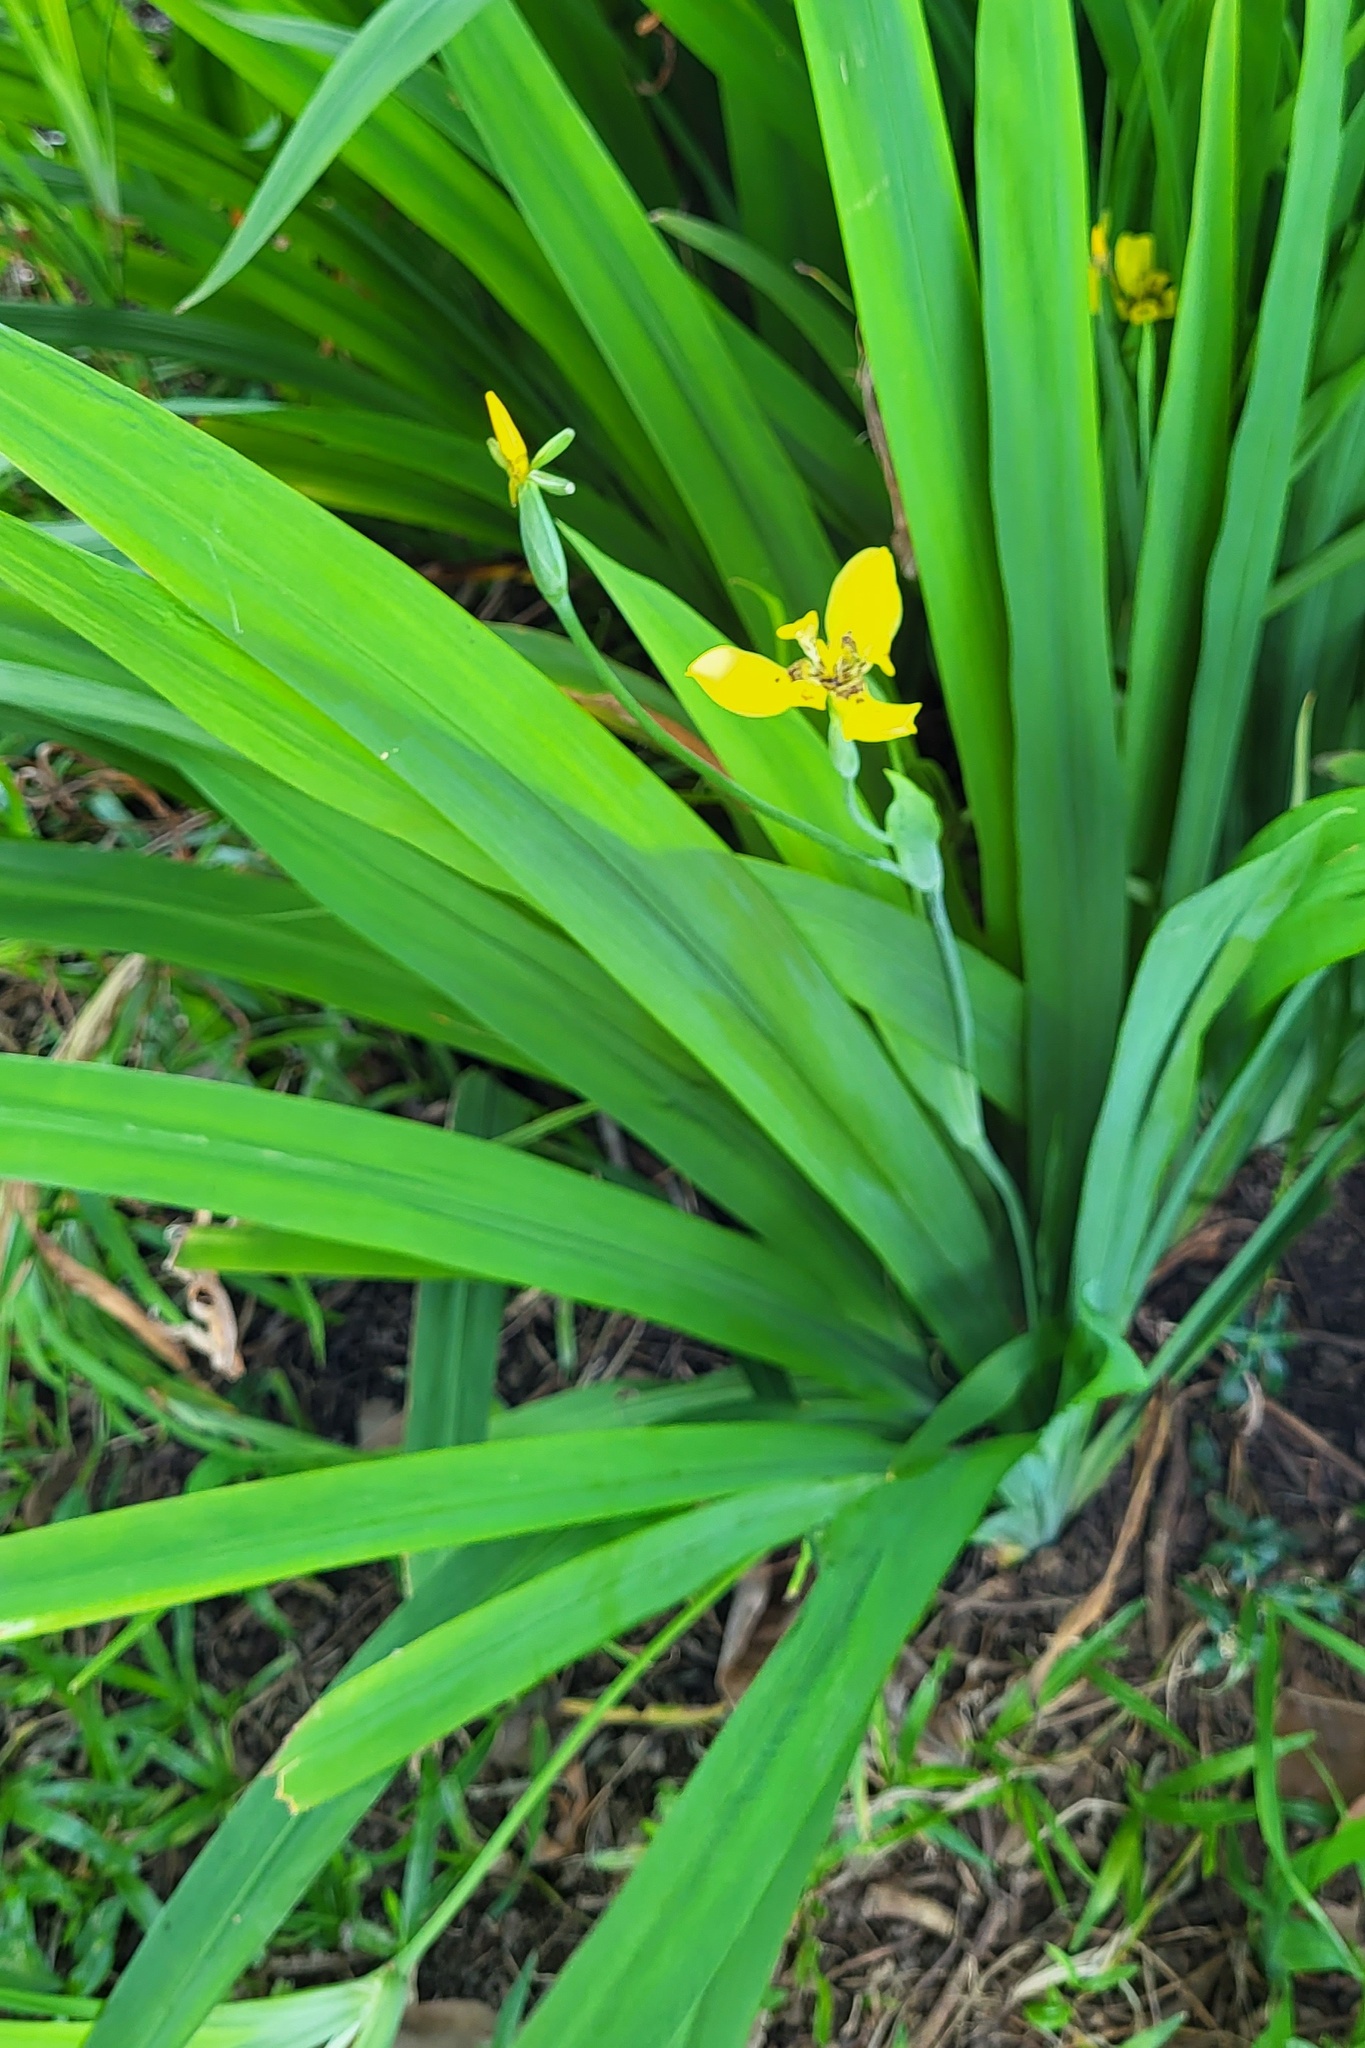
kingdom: Plantae
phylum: Tracheophyta
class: Liliopsida
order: Asparagales
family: Iridaceae
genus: Trimezia
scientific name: Trimezia steyermarkii
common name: Trimezia
